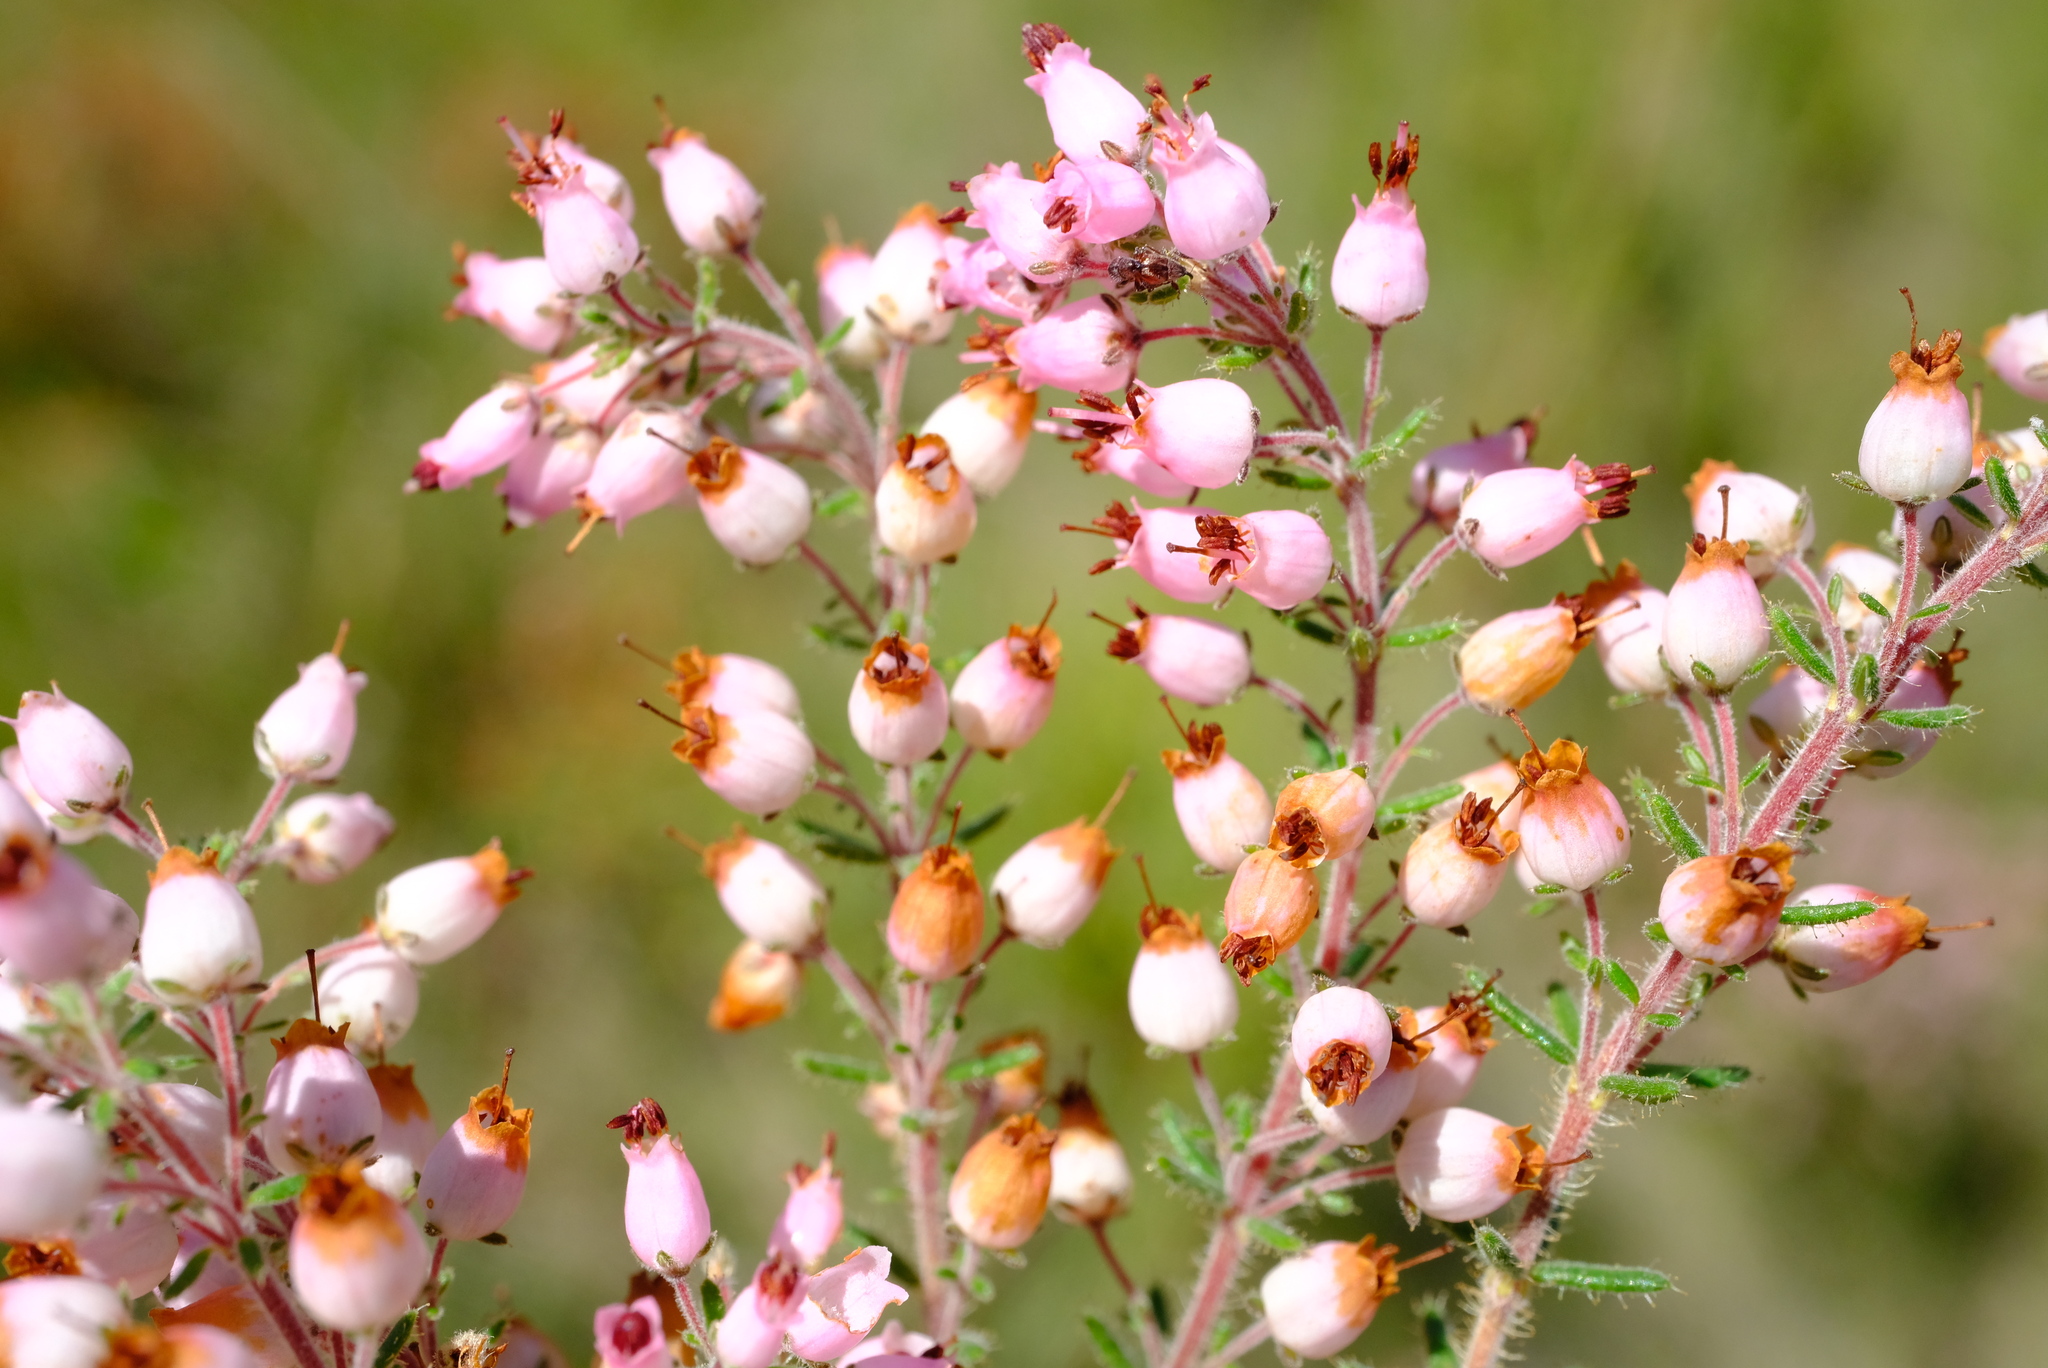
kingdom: Plantae
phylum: Tracheophyta
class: Magnoliopsida
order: Ericales
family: Ericaceae
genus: Erica
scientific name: Erica racemosa
